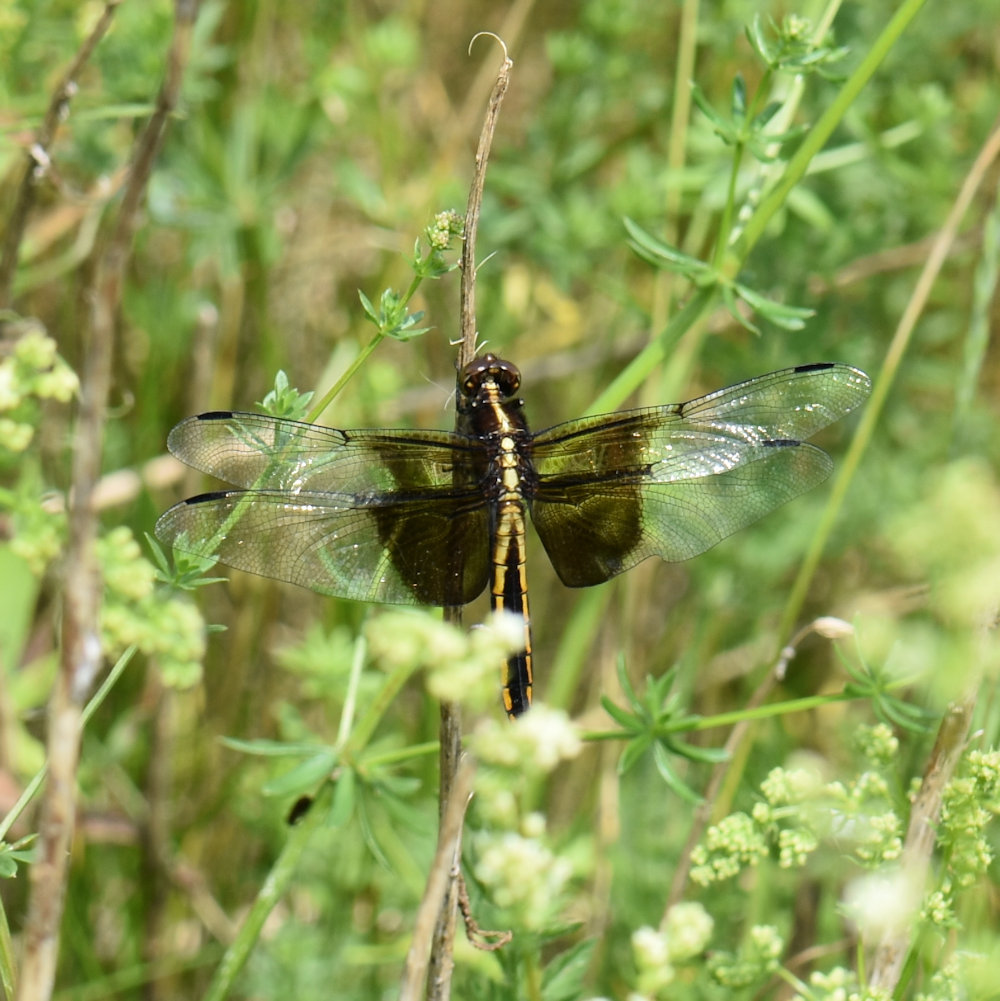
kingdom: Animalia
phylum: Arthropoda
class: Insecta
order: Odonata
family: Libellulidae
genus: Libellula
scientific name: Libellula luctuosa
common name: Widow skimmer
